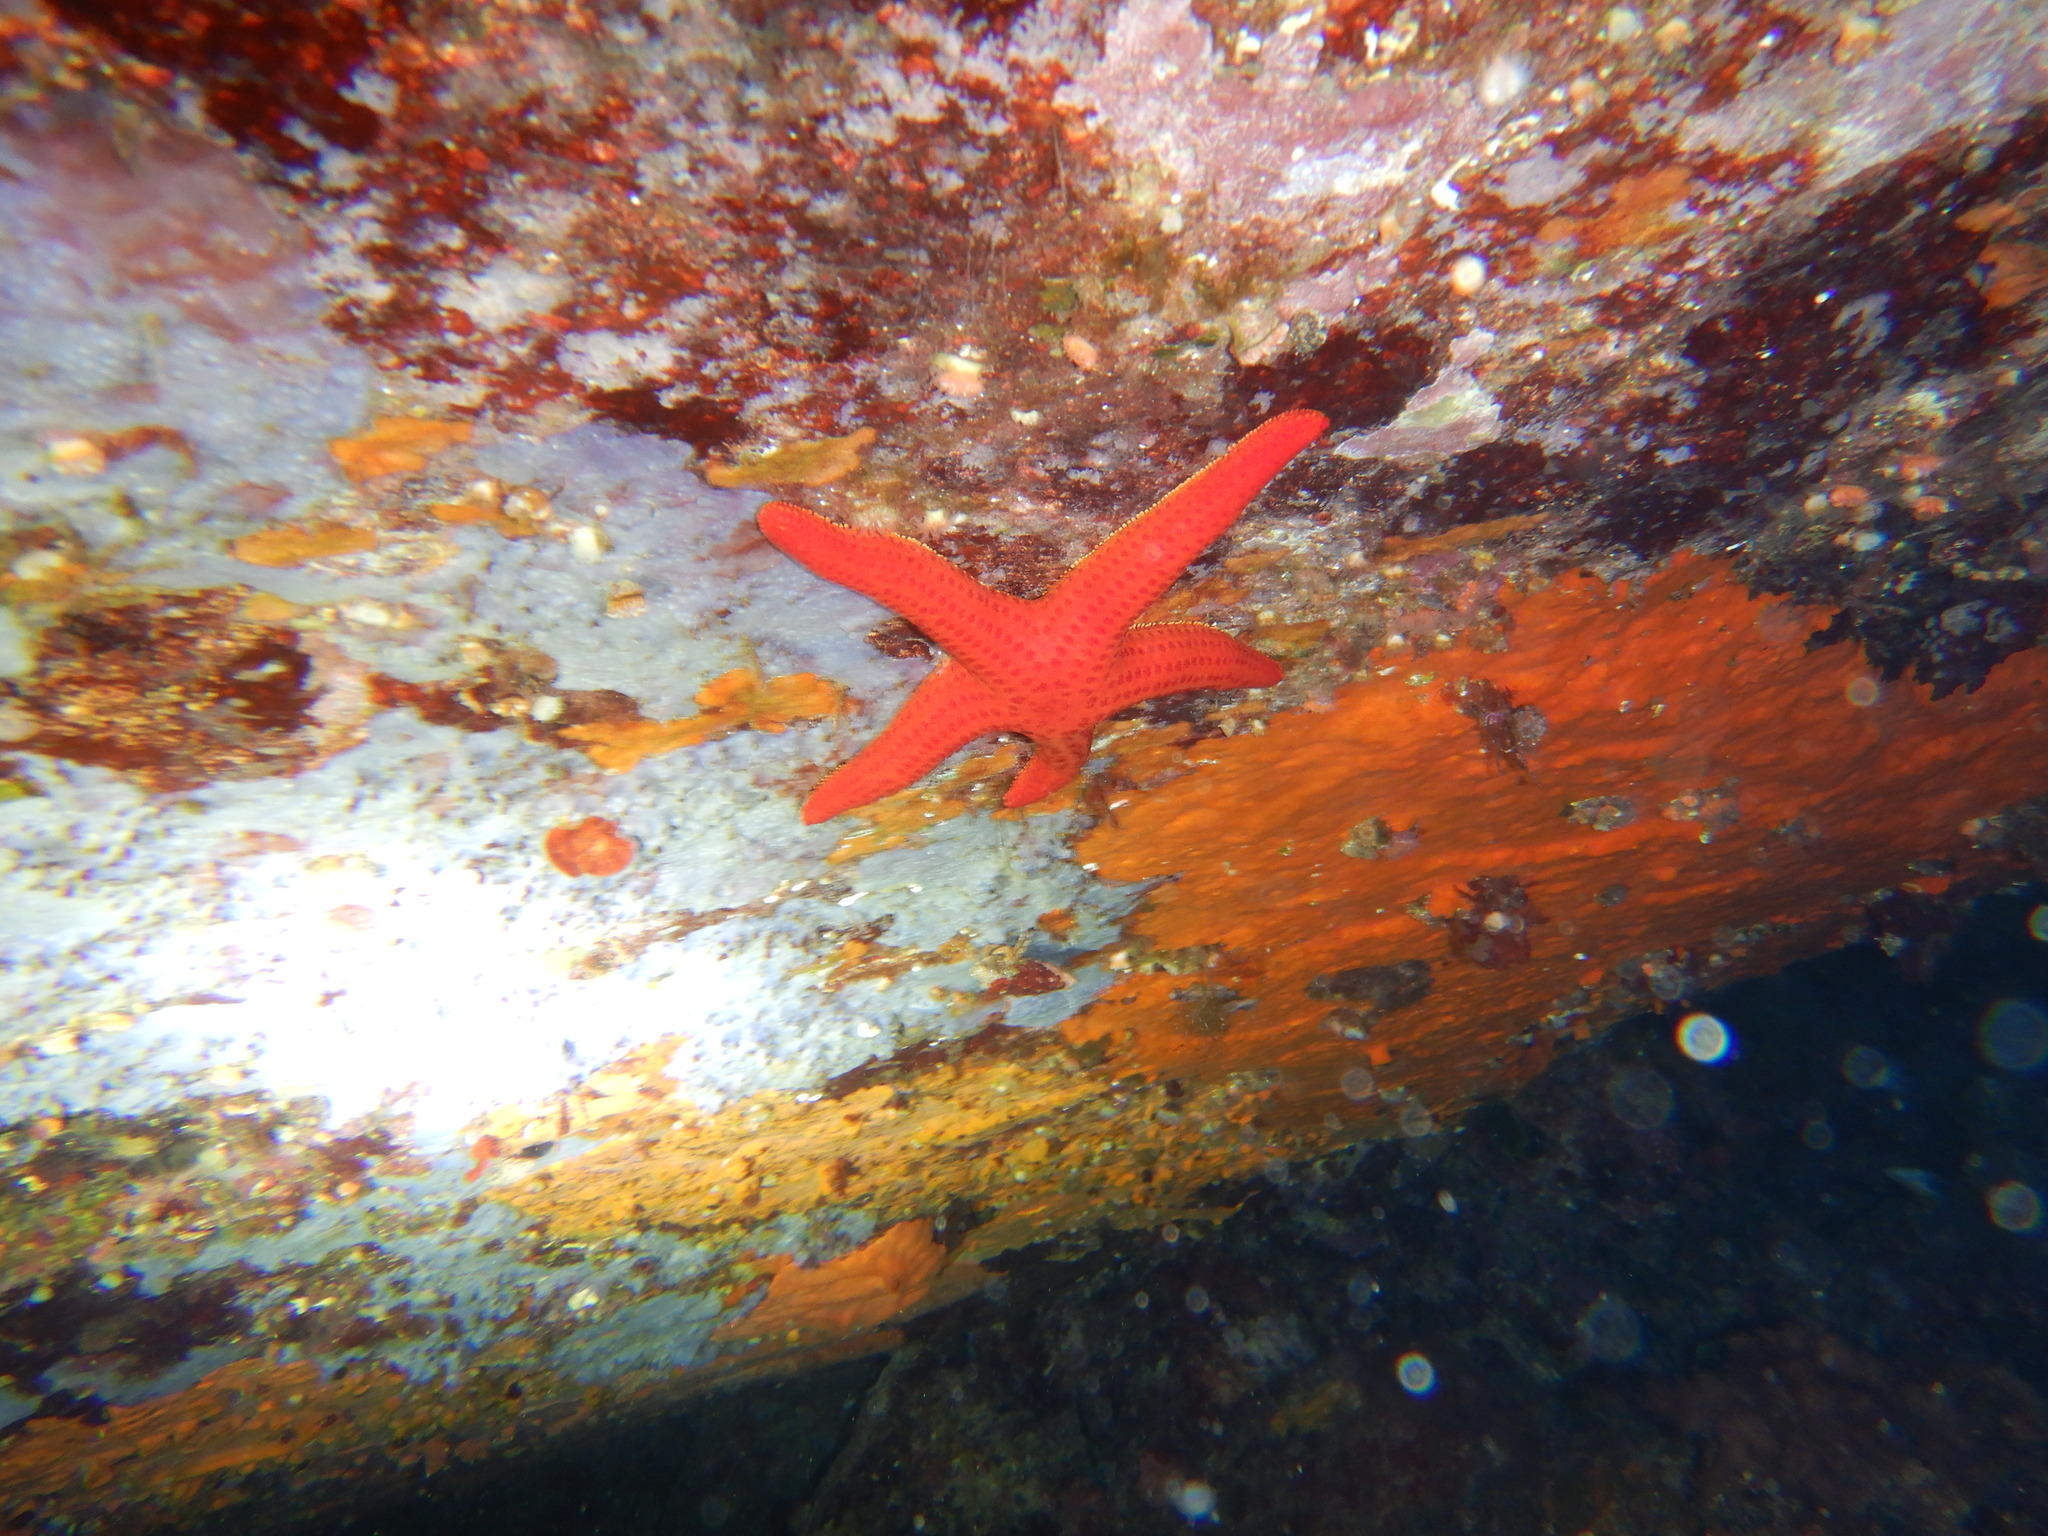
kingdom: Animalia
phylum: Echinodermata
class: Asteroidea
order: Valvatida
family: Ophidiasteridae
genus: Hacelia
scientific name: Hacelia attenuata
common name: Smooth starfish
